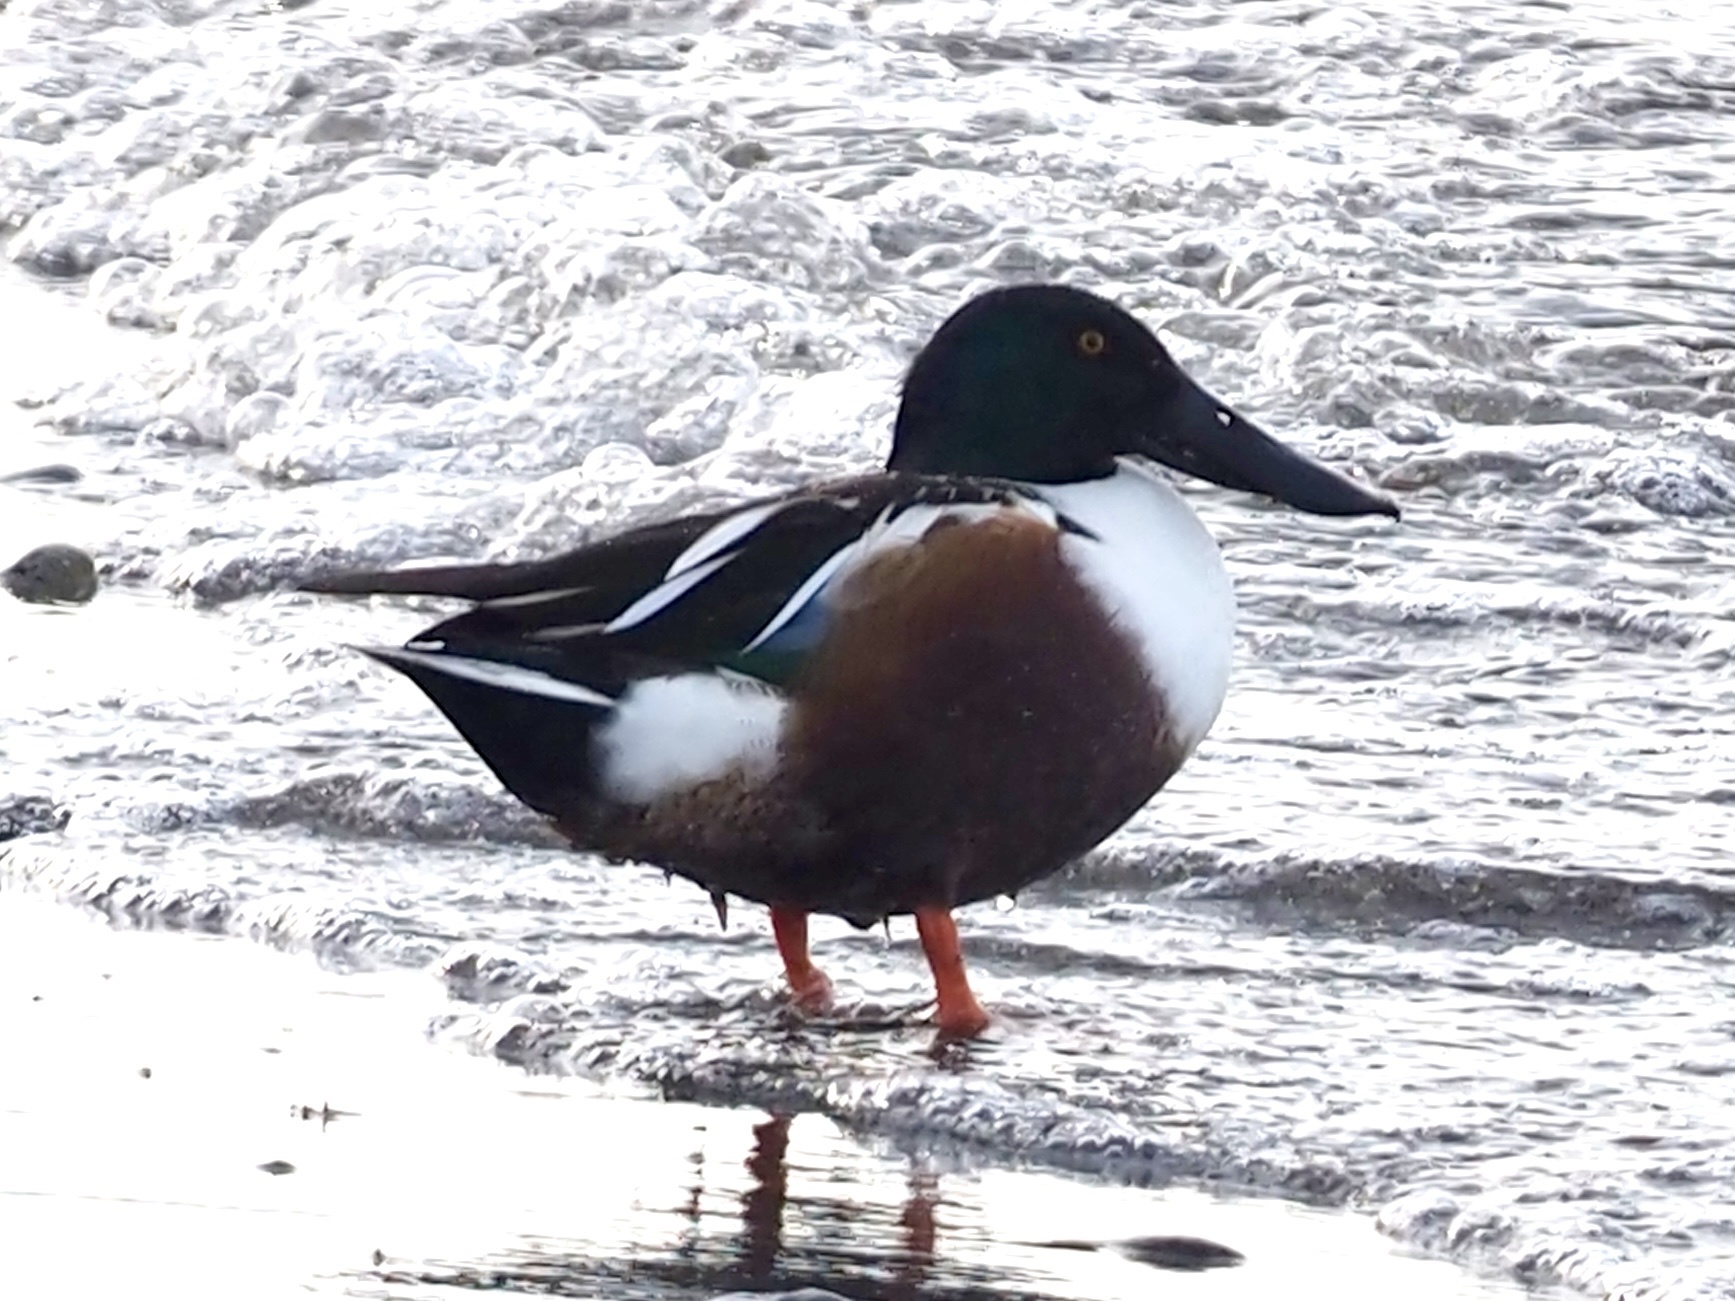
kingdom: Animalia
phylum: Chordata
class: Aves
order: Anseriformes
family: Anatidae
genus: Spatula
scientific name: Spatula clypeata
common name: Northern shoveler
